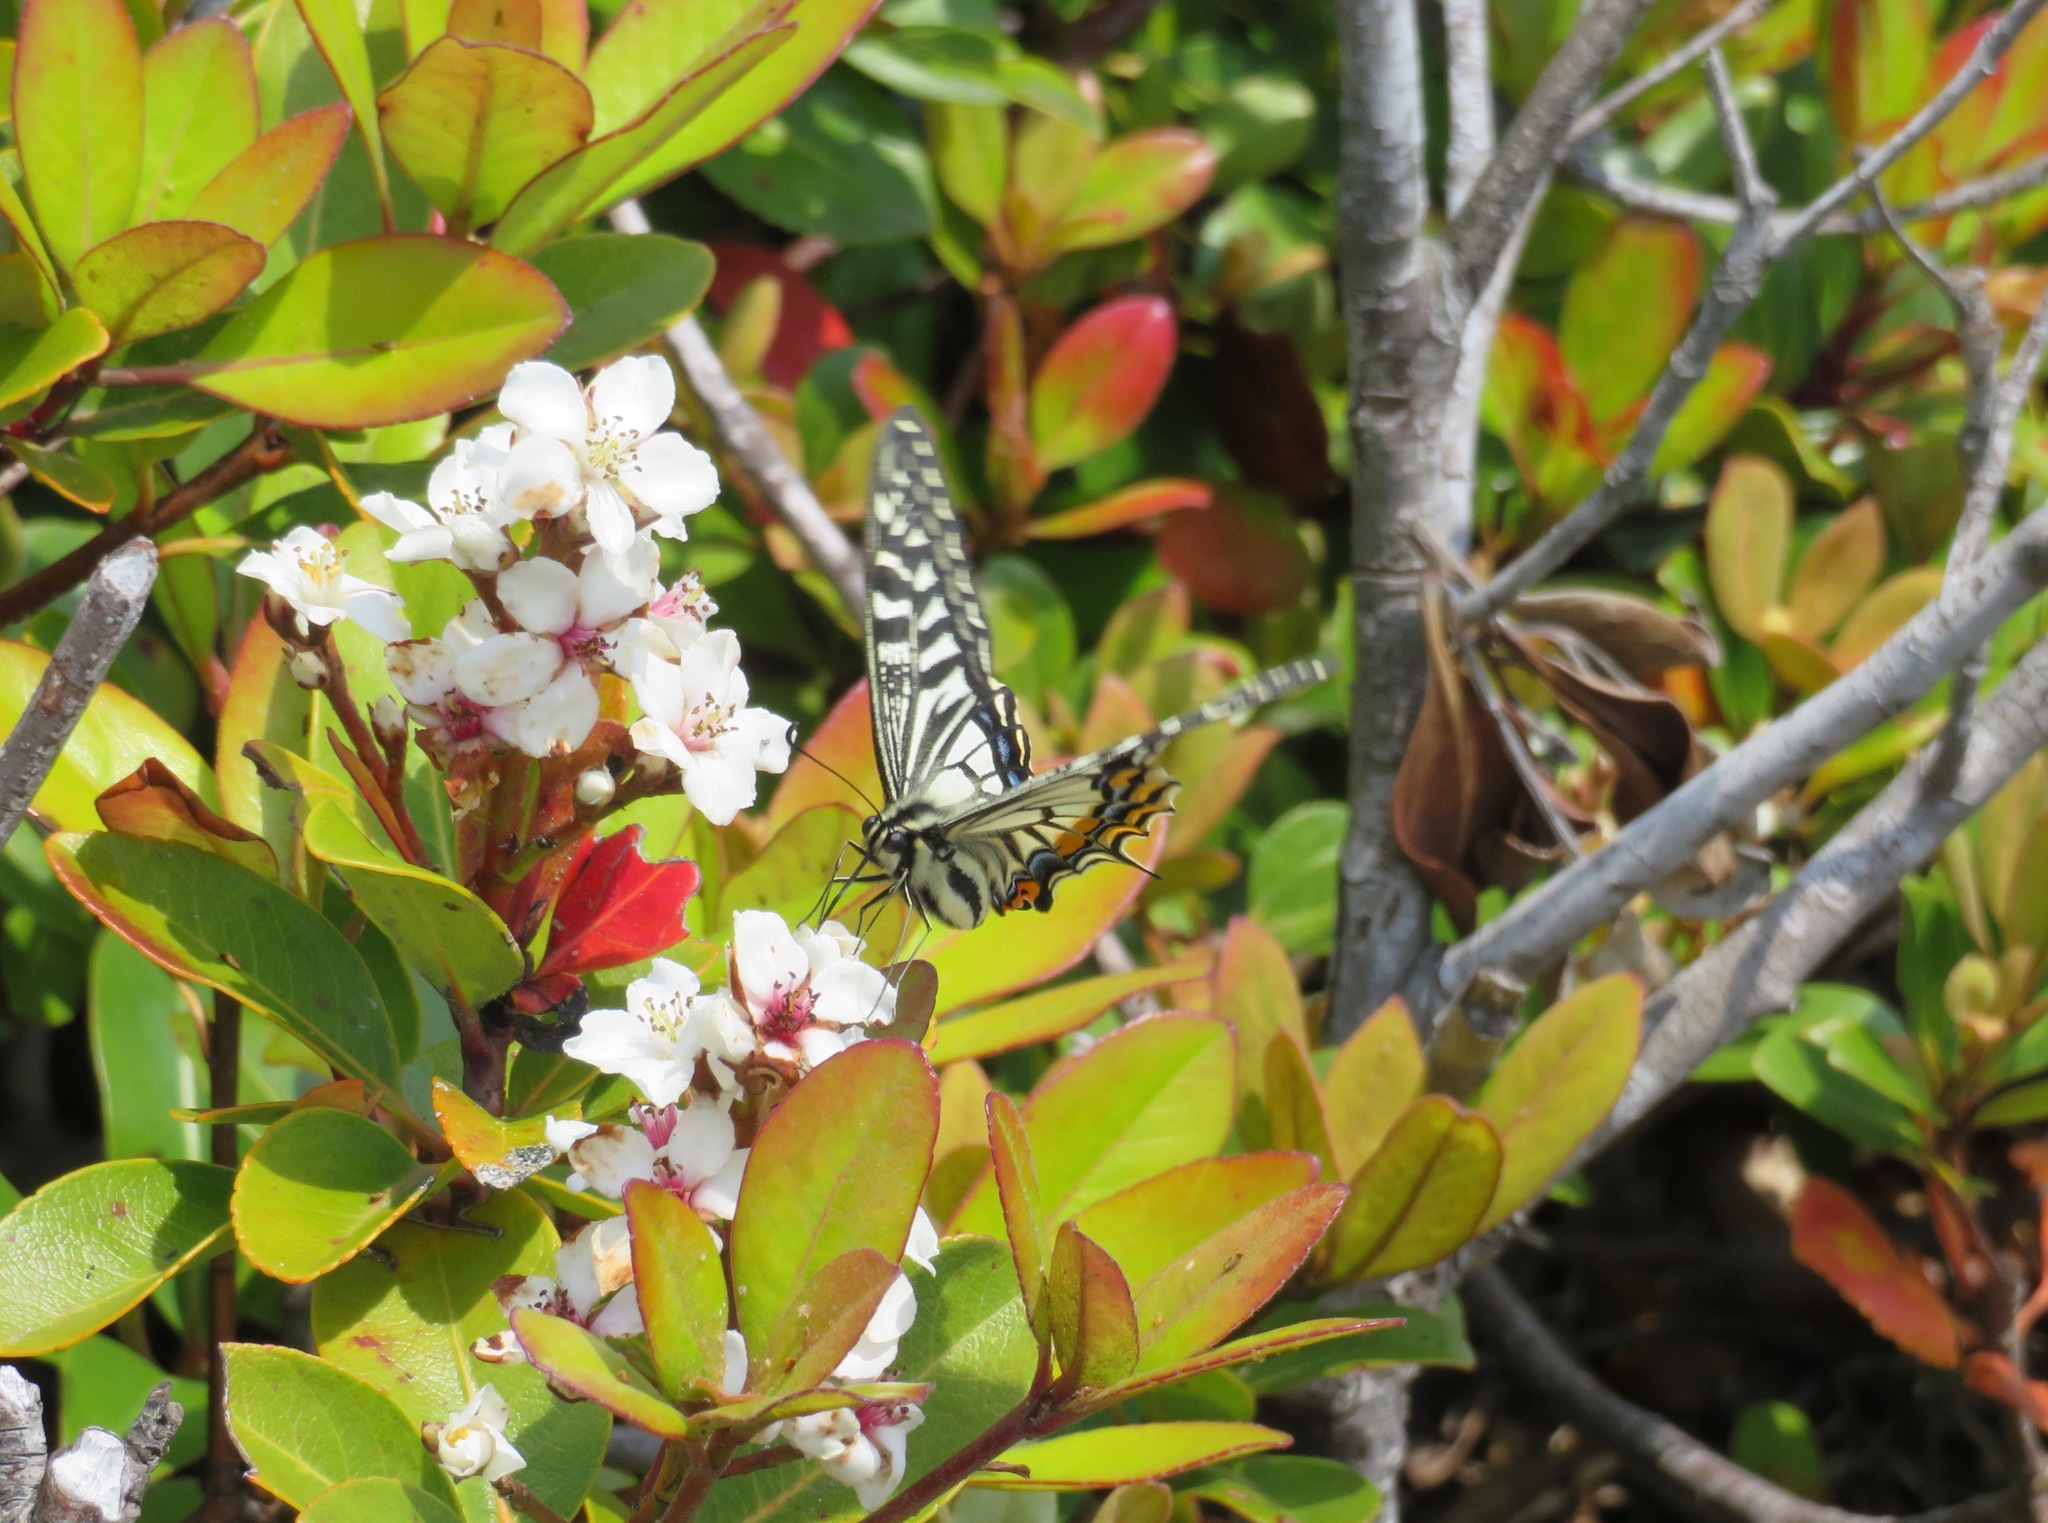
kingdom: Animalia
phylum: Arthropoda
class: Insecta
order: Lepidoptera
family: Papilionidae
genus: Papilio
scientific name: Papilio xuthus
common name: Asian swallowtail
